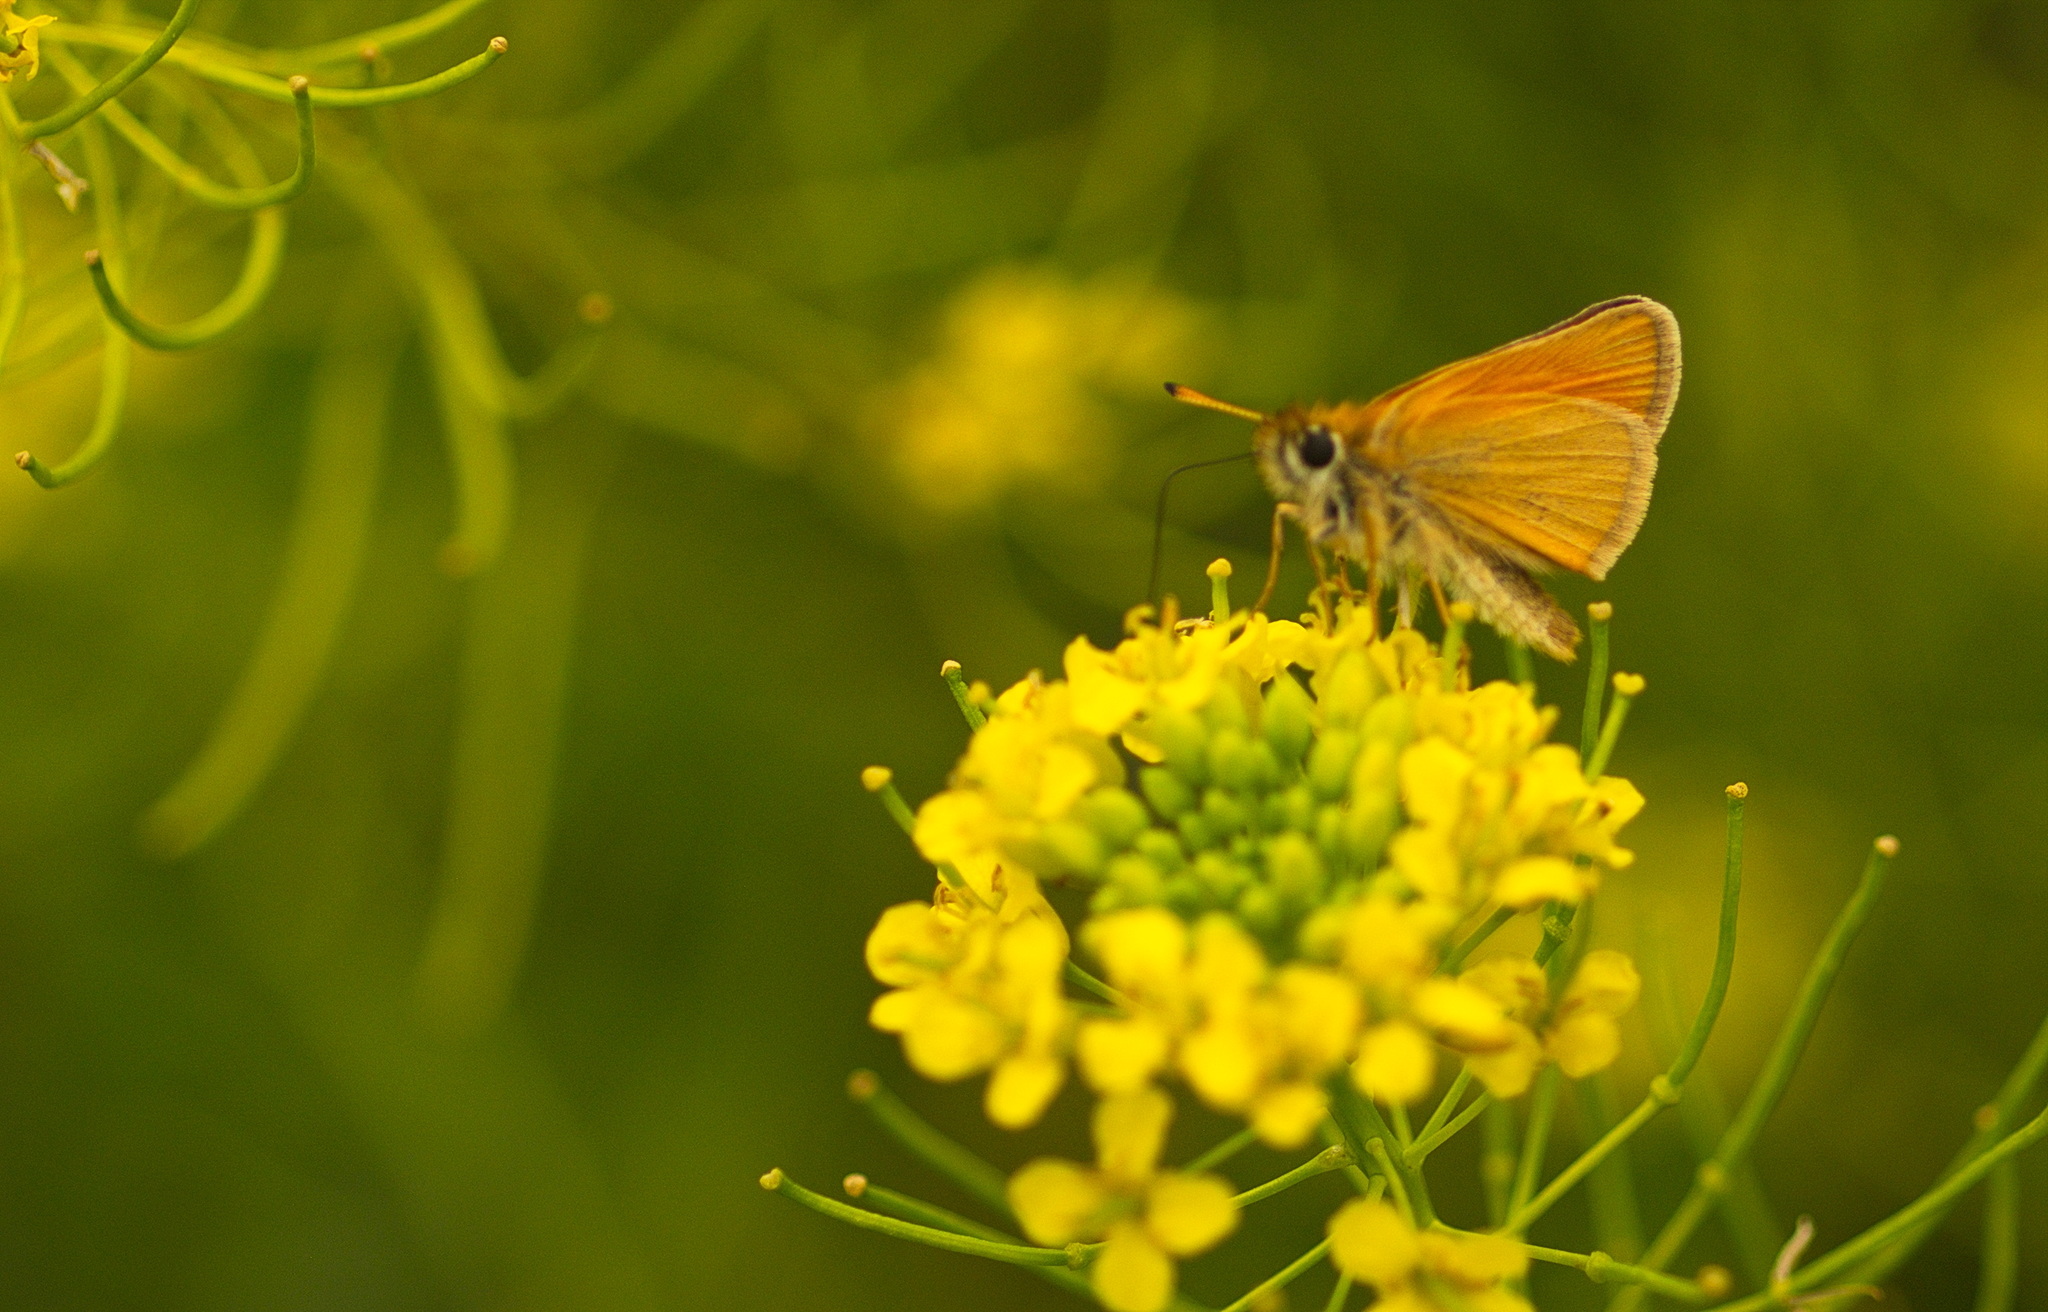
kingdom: Animalia
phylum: Arthropoda
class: Insecta
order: Lepidoptera
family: Hesperiidae
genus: Thymelicus
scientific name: Thymelicus lineola
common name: Essex skipper
